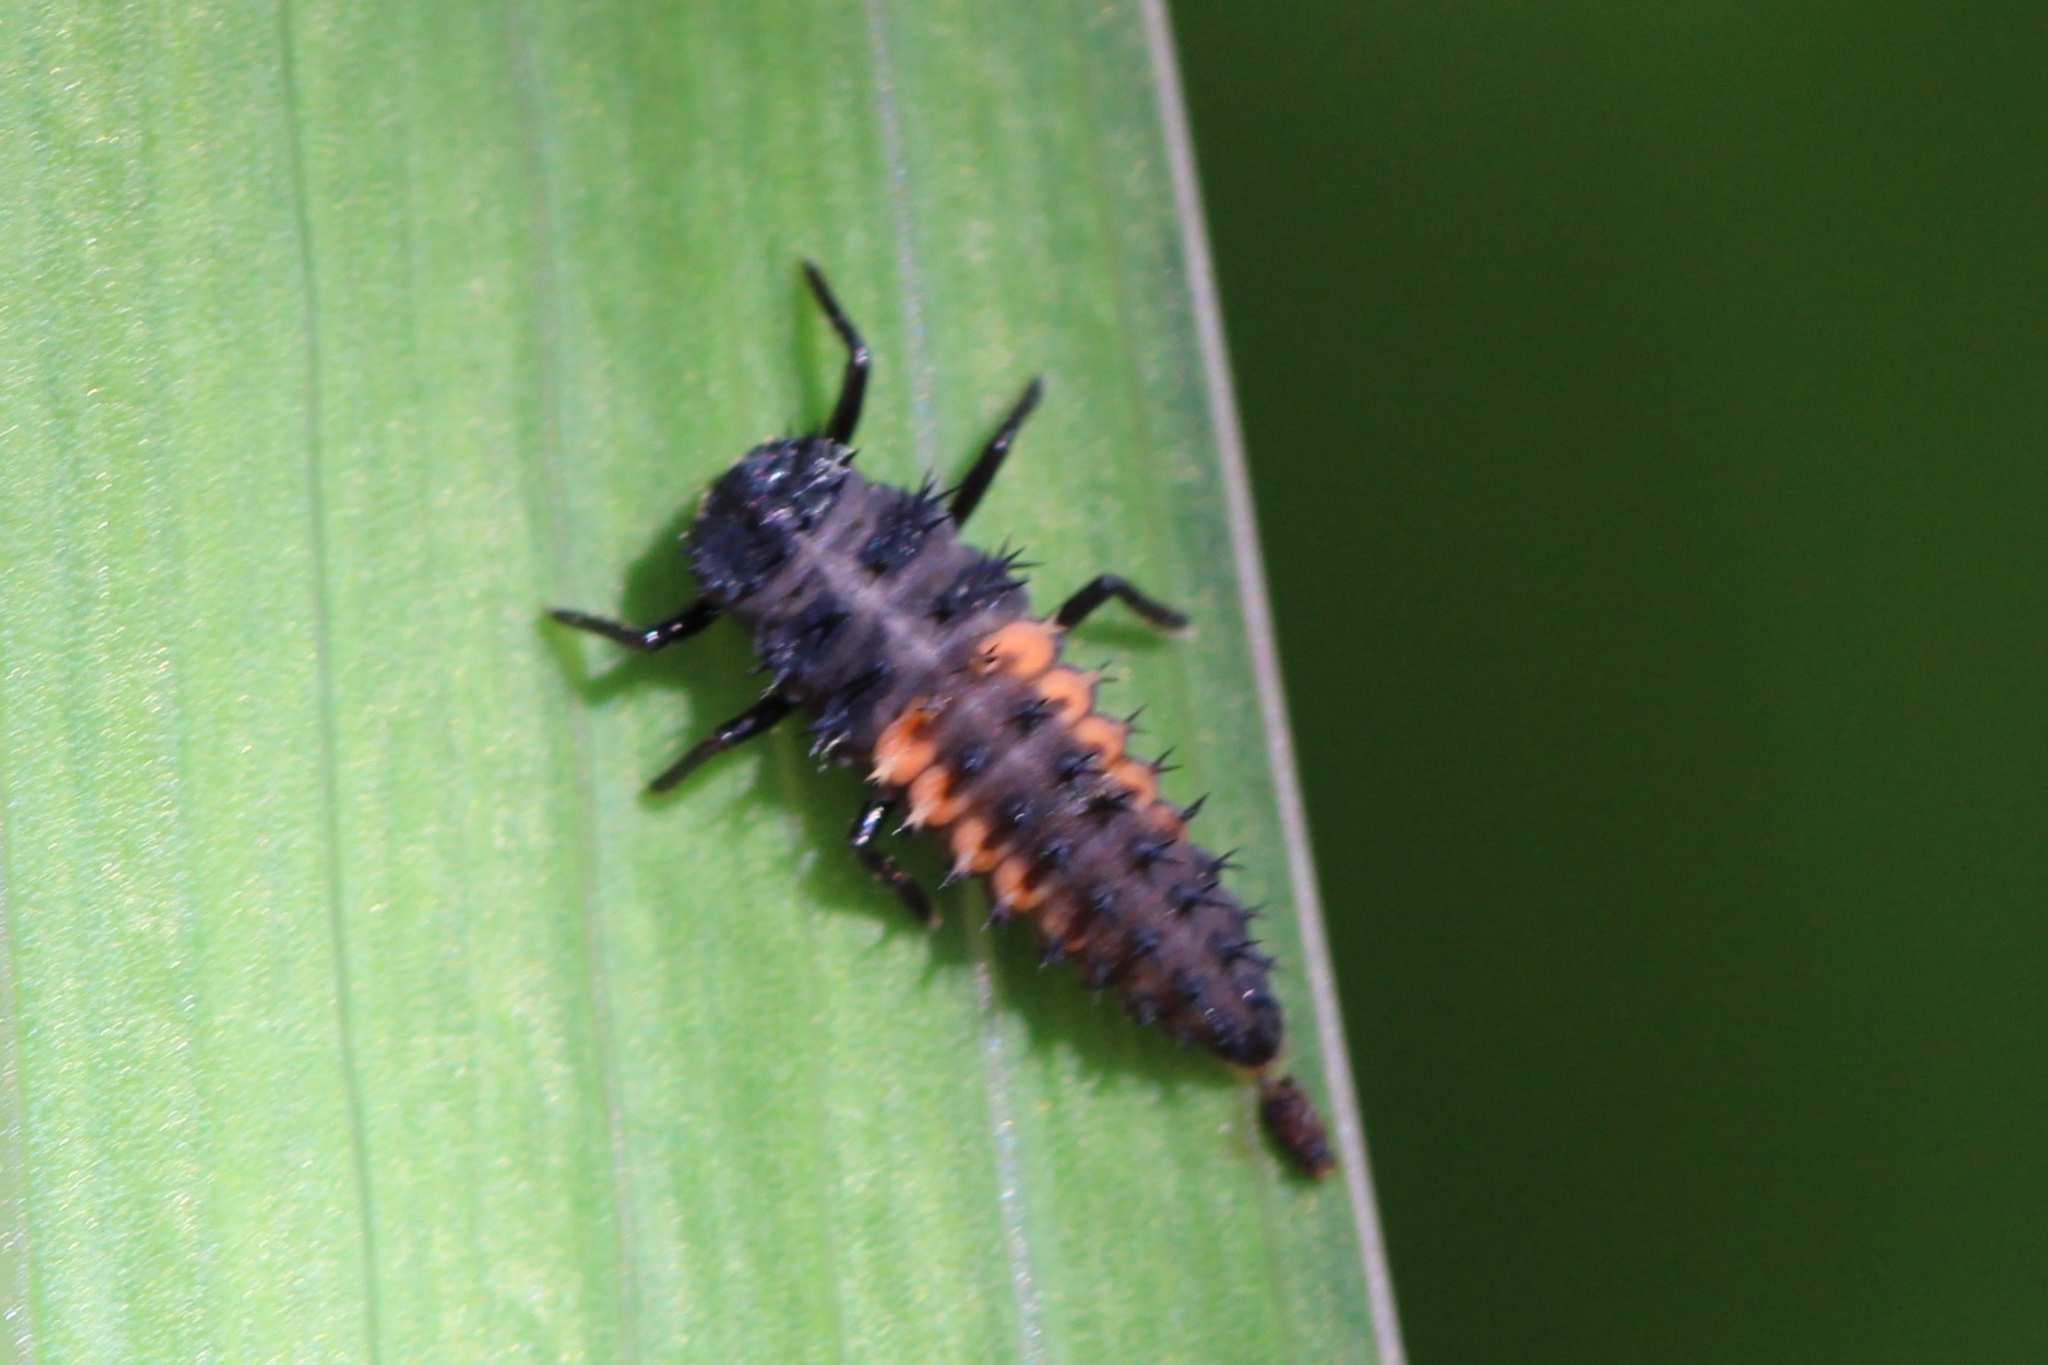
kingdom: Animalia
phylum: Arthropoda
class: Insecta
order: Coleoptera
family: Coccinellidae
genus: Harmonia
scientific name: Harmonia axyridis
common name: Harlequin ladybird
